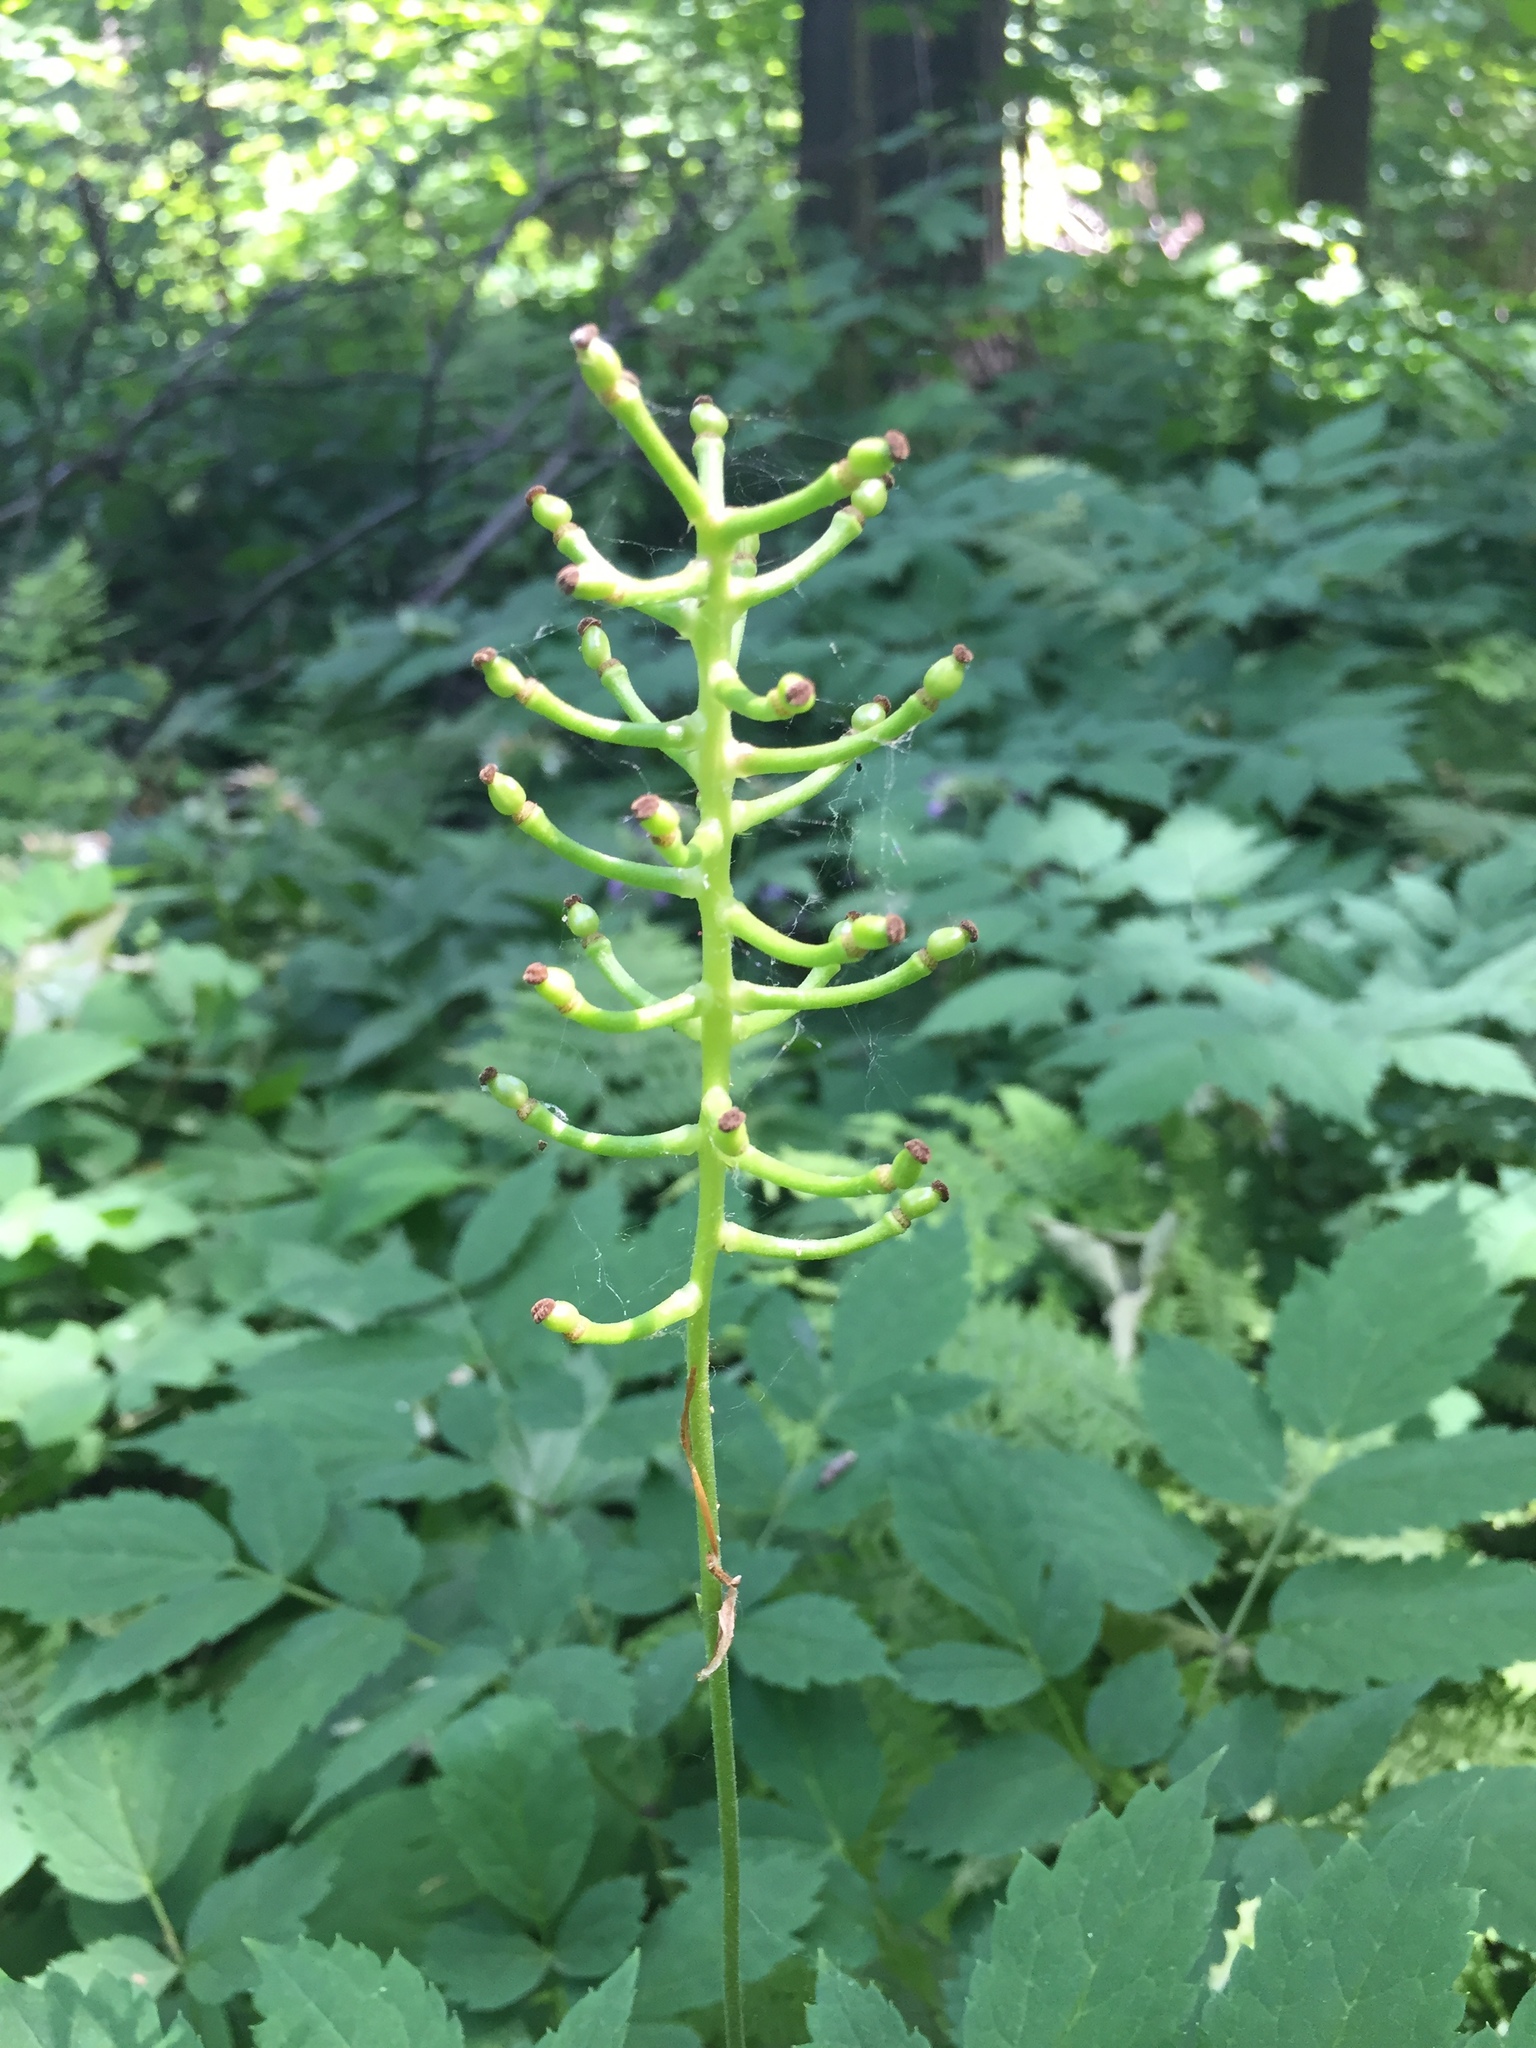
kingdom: Plantae
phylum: Tracheophyta
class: Magnoliopsida
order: Ranunculales
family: Ranunculaceae
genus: Actaea
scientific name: Actaea pachypoda
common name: Doll's-eyes
